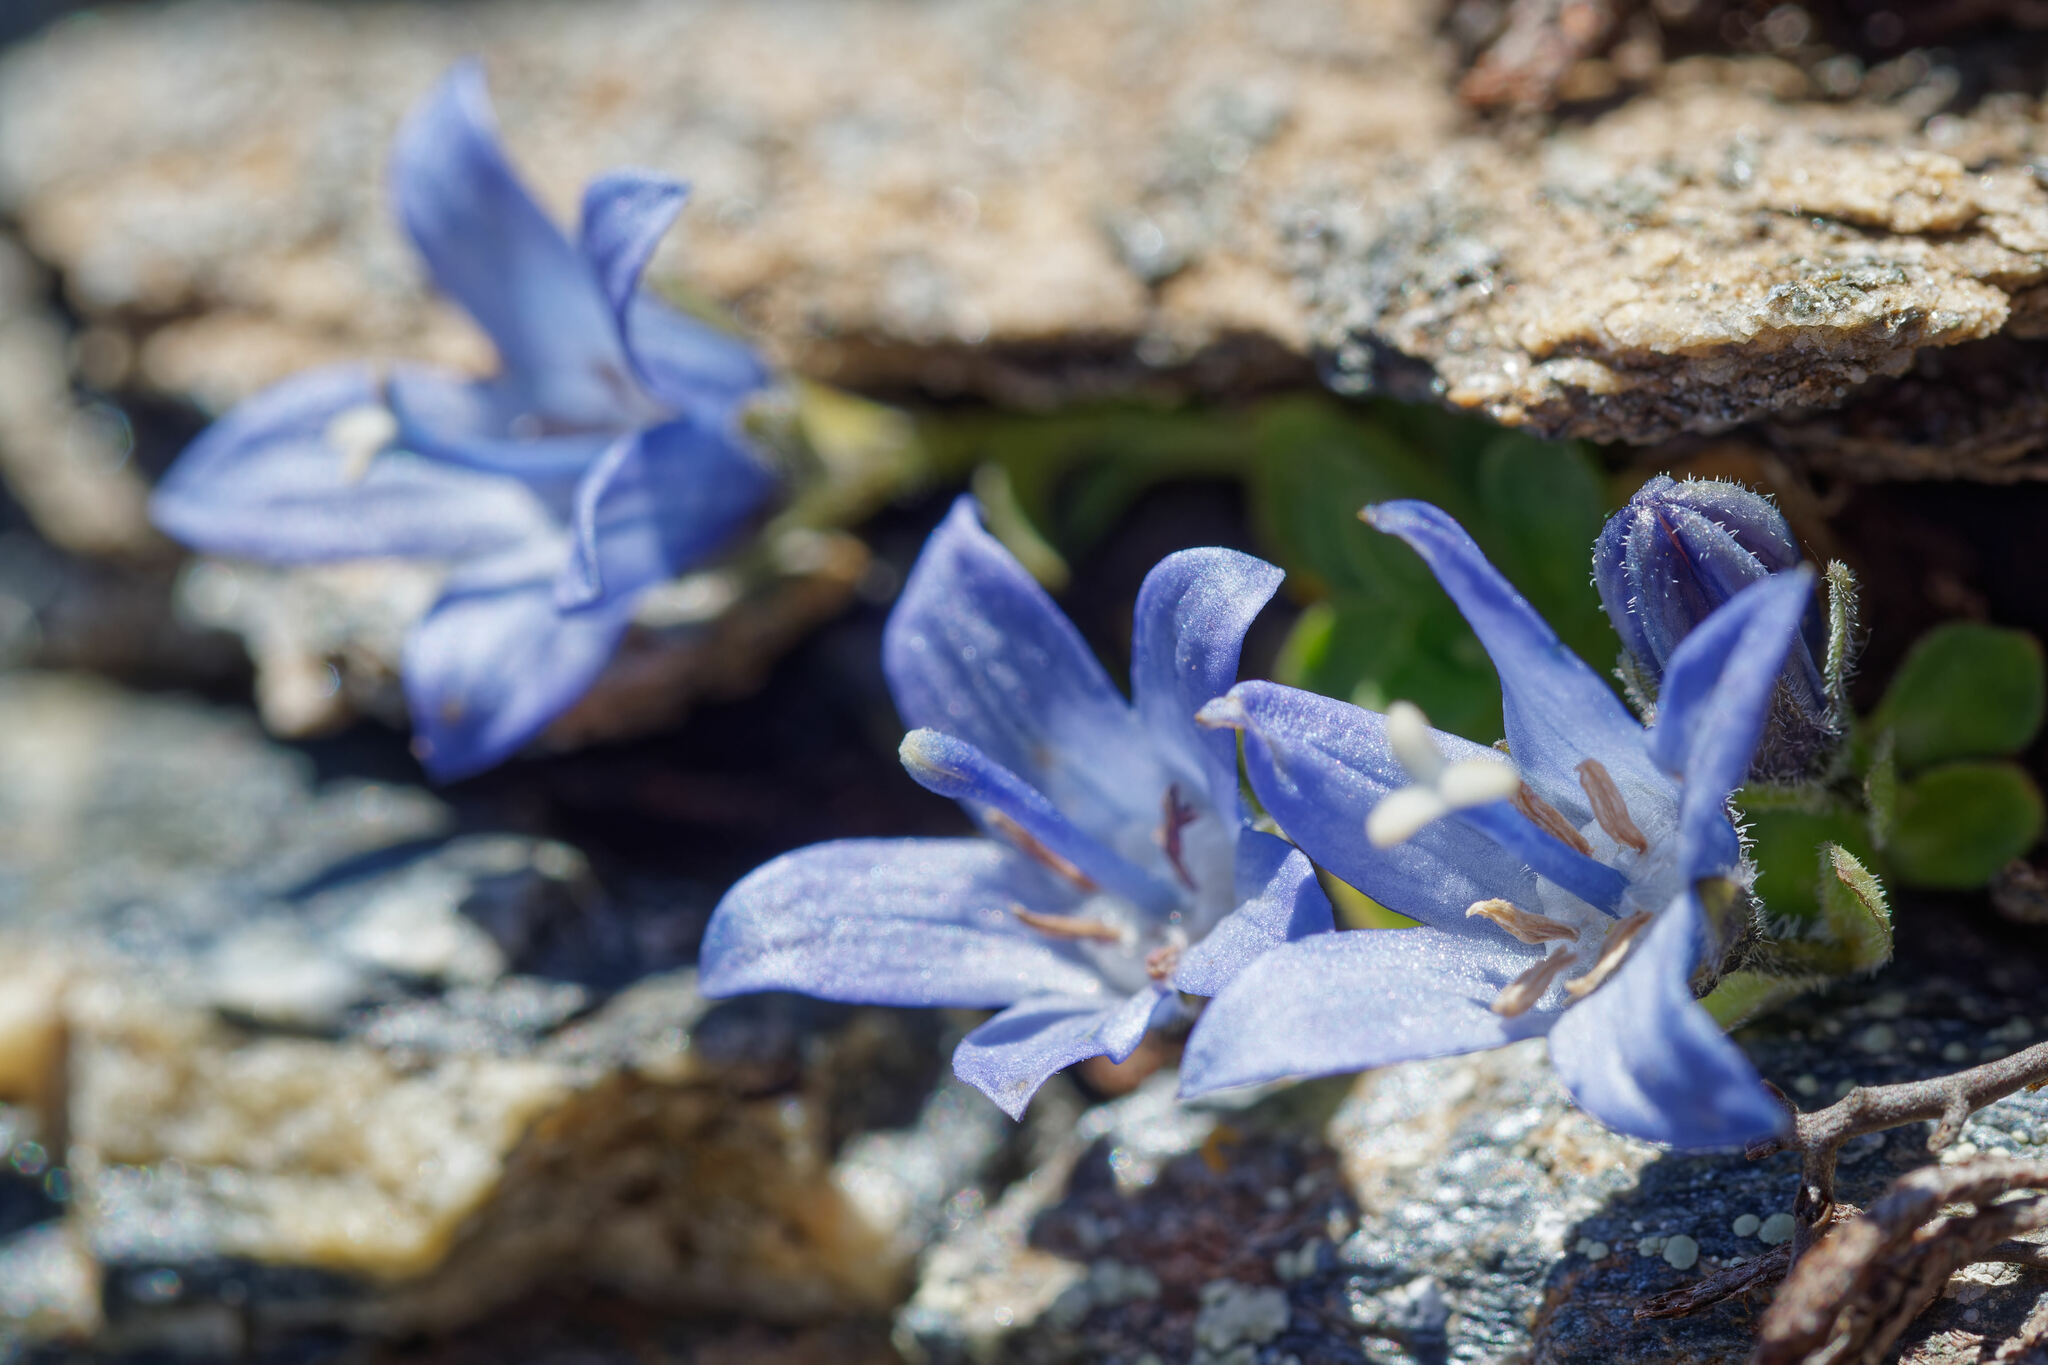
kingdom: Plantae
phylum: Tracheophyta
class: Magnoliopsida
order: Asterales
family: Campanulaceae
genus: Campanula
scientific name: Campanula cenisia
